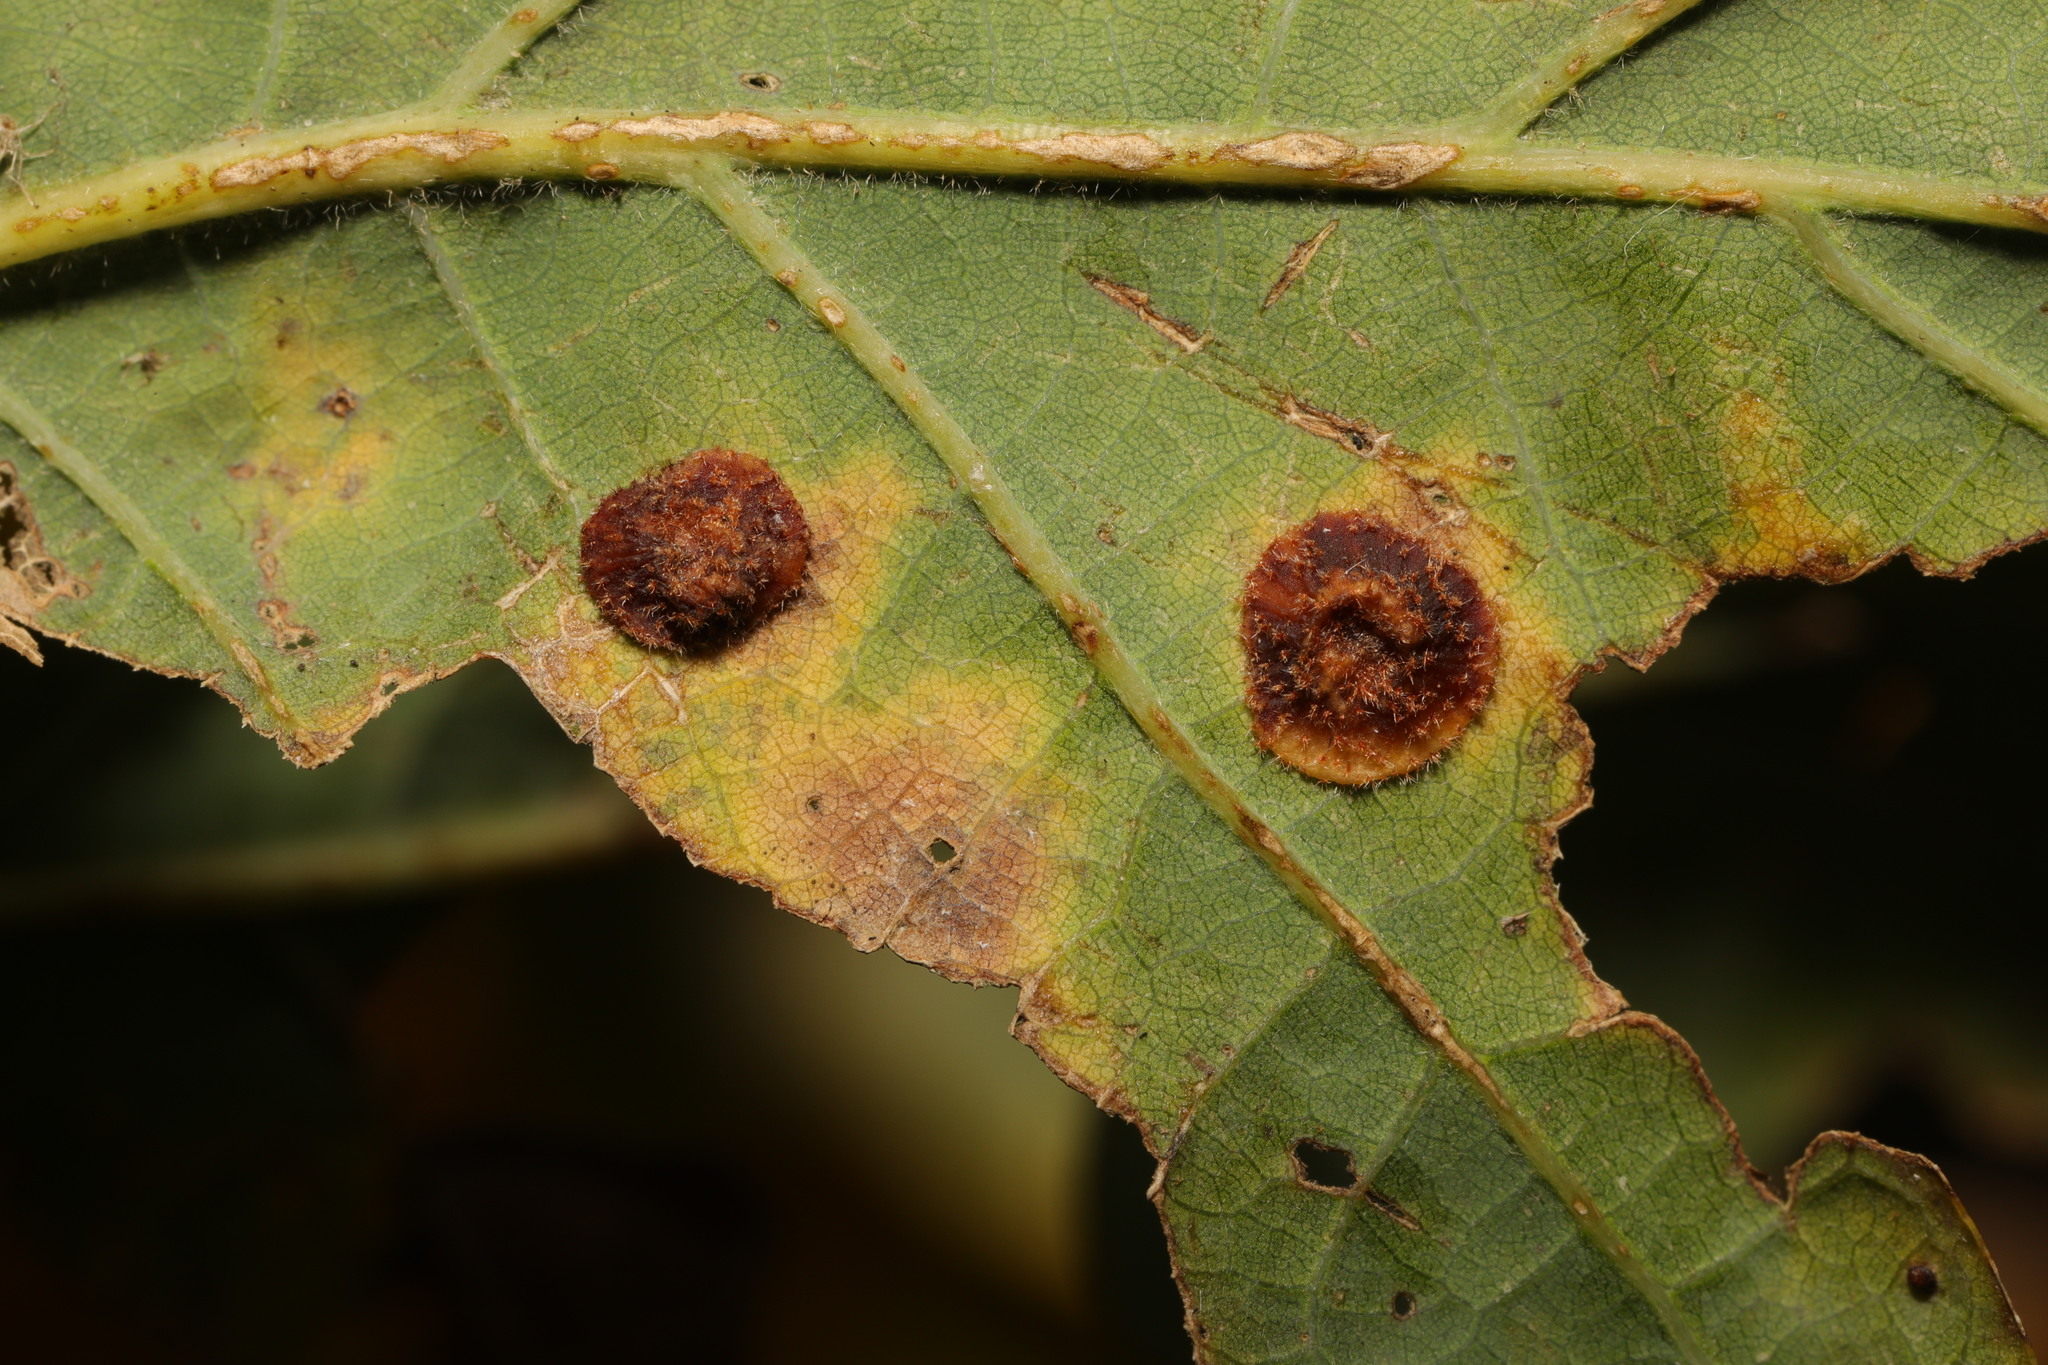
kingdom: Animalia
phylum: Arthropoda
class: Insecta
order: Hymenoptera
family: Cynipidae
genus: Neuroterus
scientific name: Neuroterus quercusbaccarum
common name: Common spangle gall
